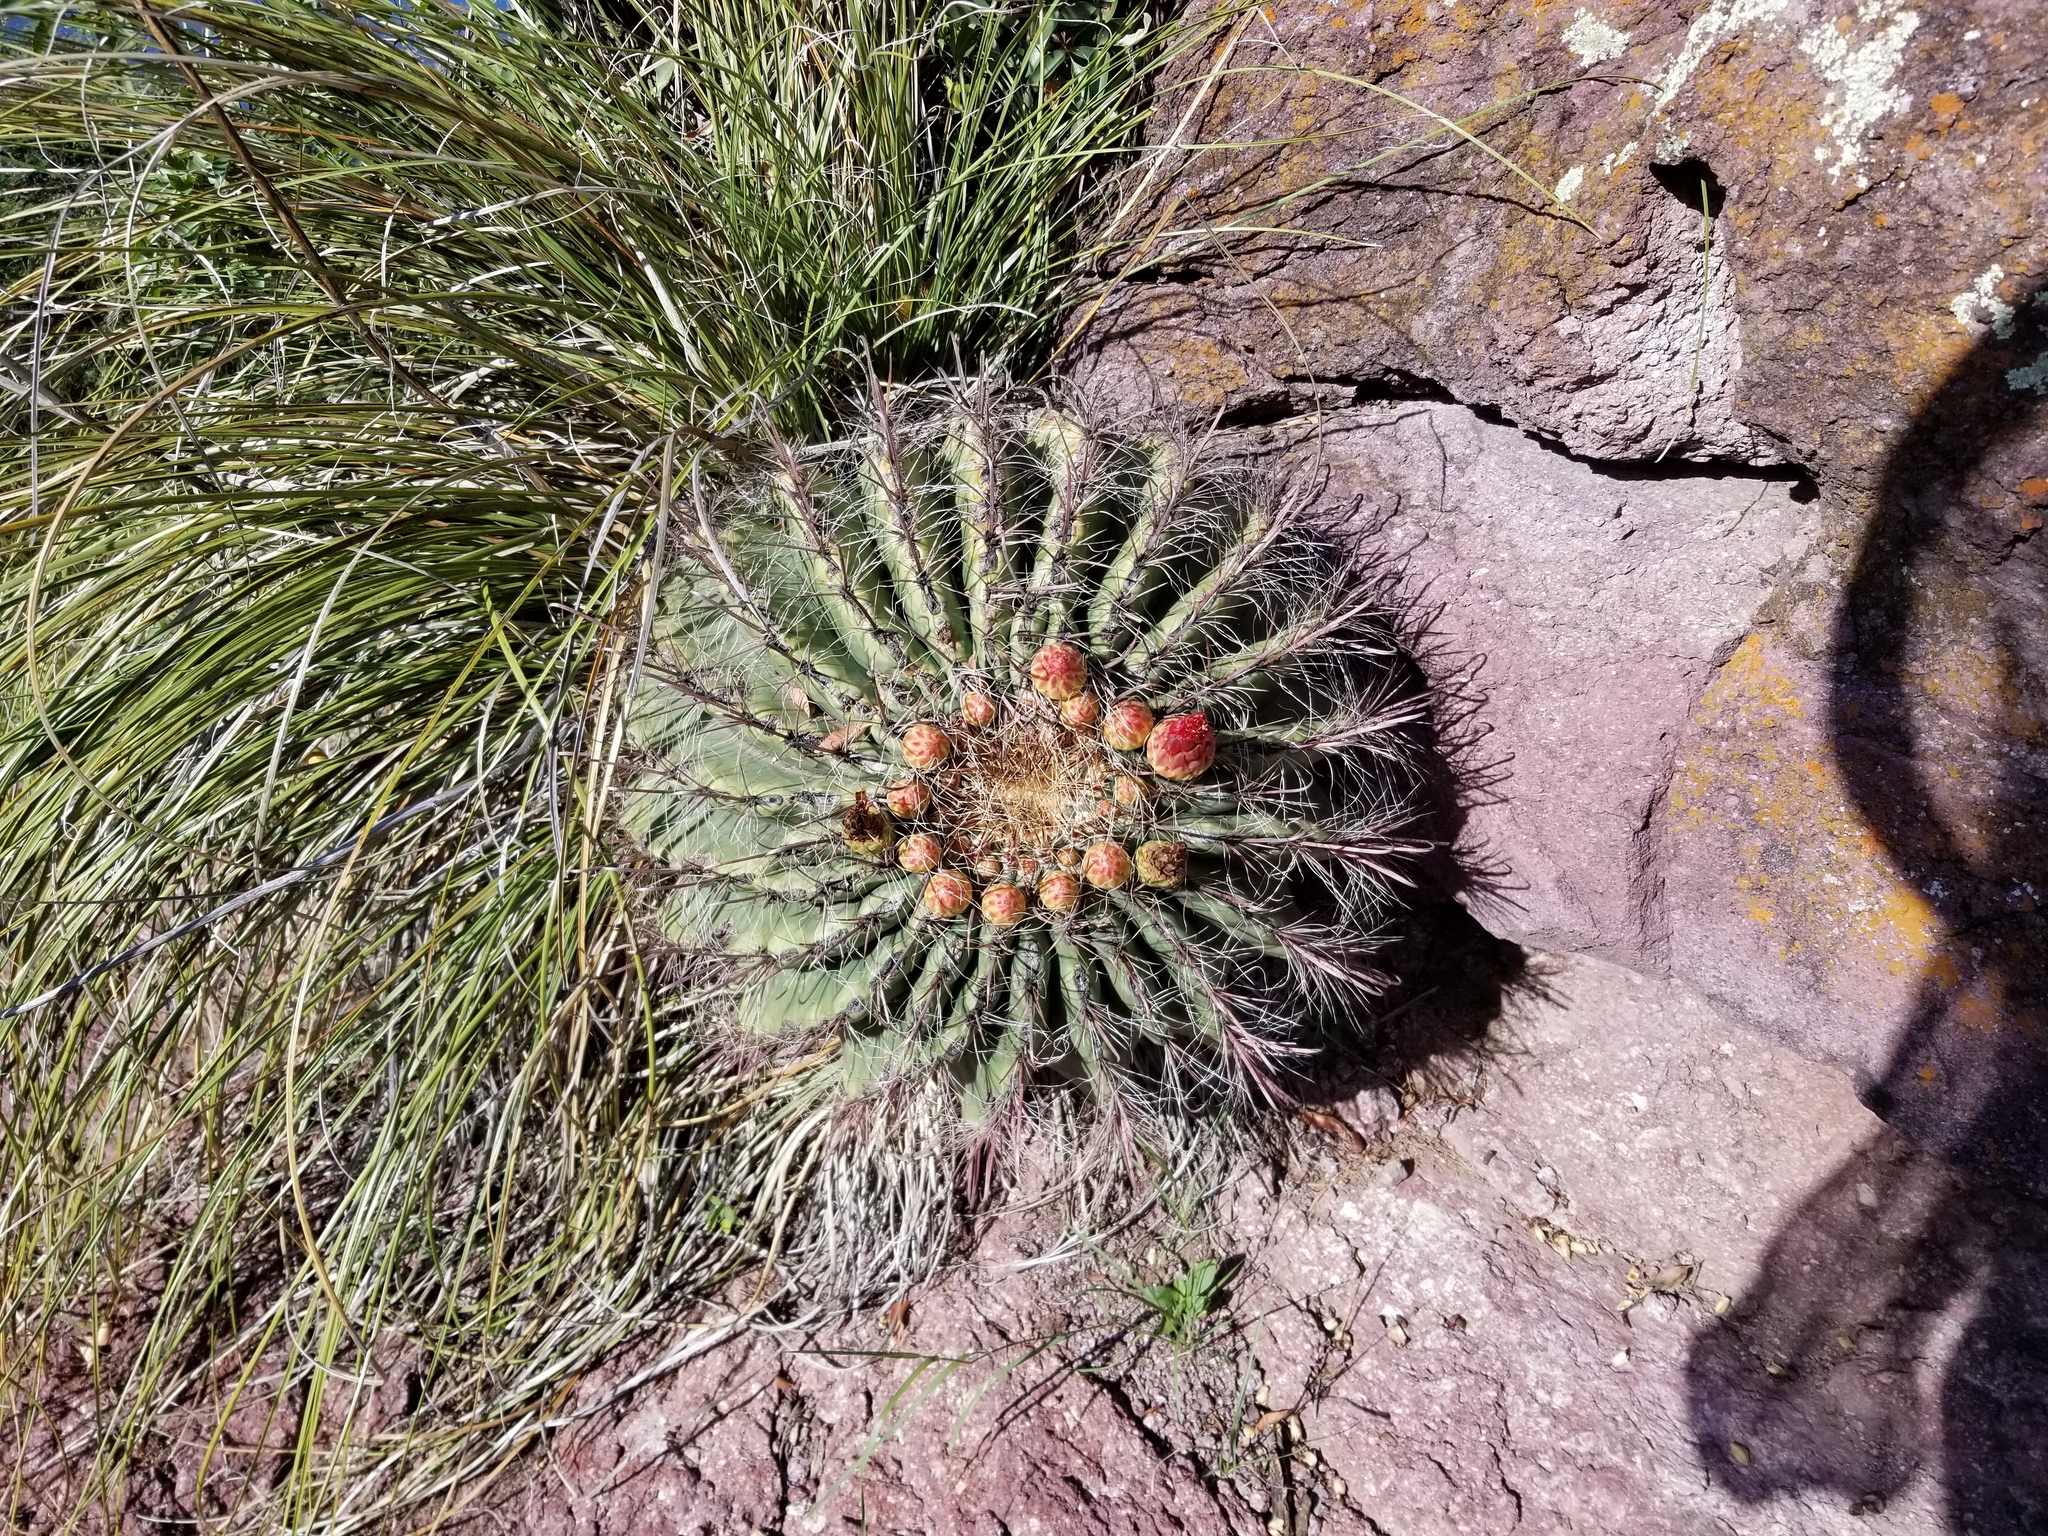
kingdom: Plantae
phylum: Tracheophyta
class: Magnoliopsida
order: Caryophyllales
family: Cactaceae
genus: Ferocactus
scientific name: Ferocactus wislizeni
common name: Candy barrel cactus
